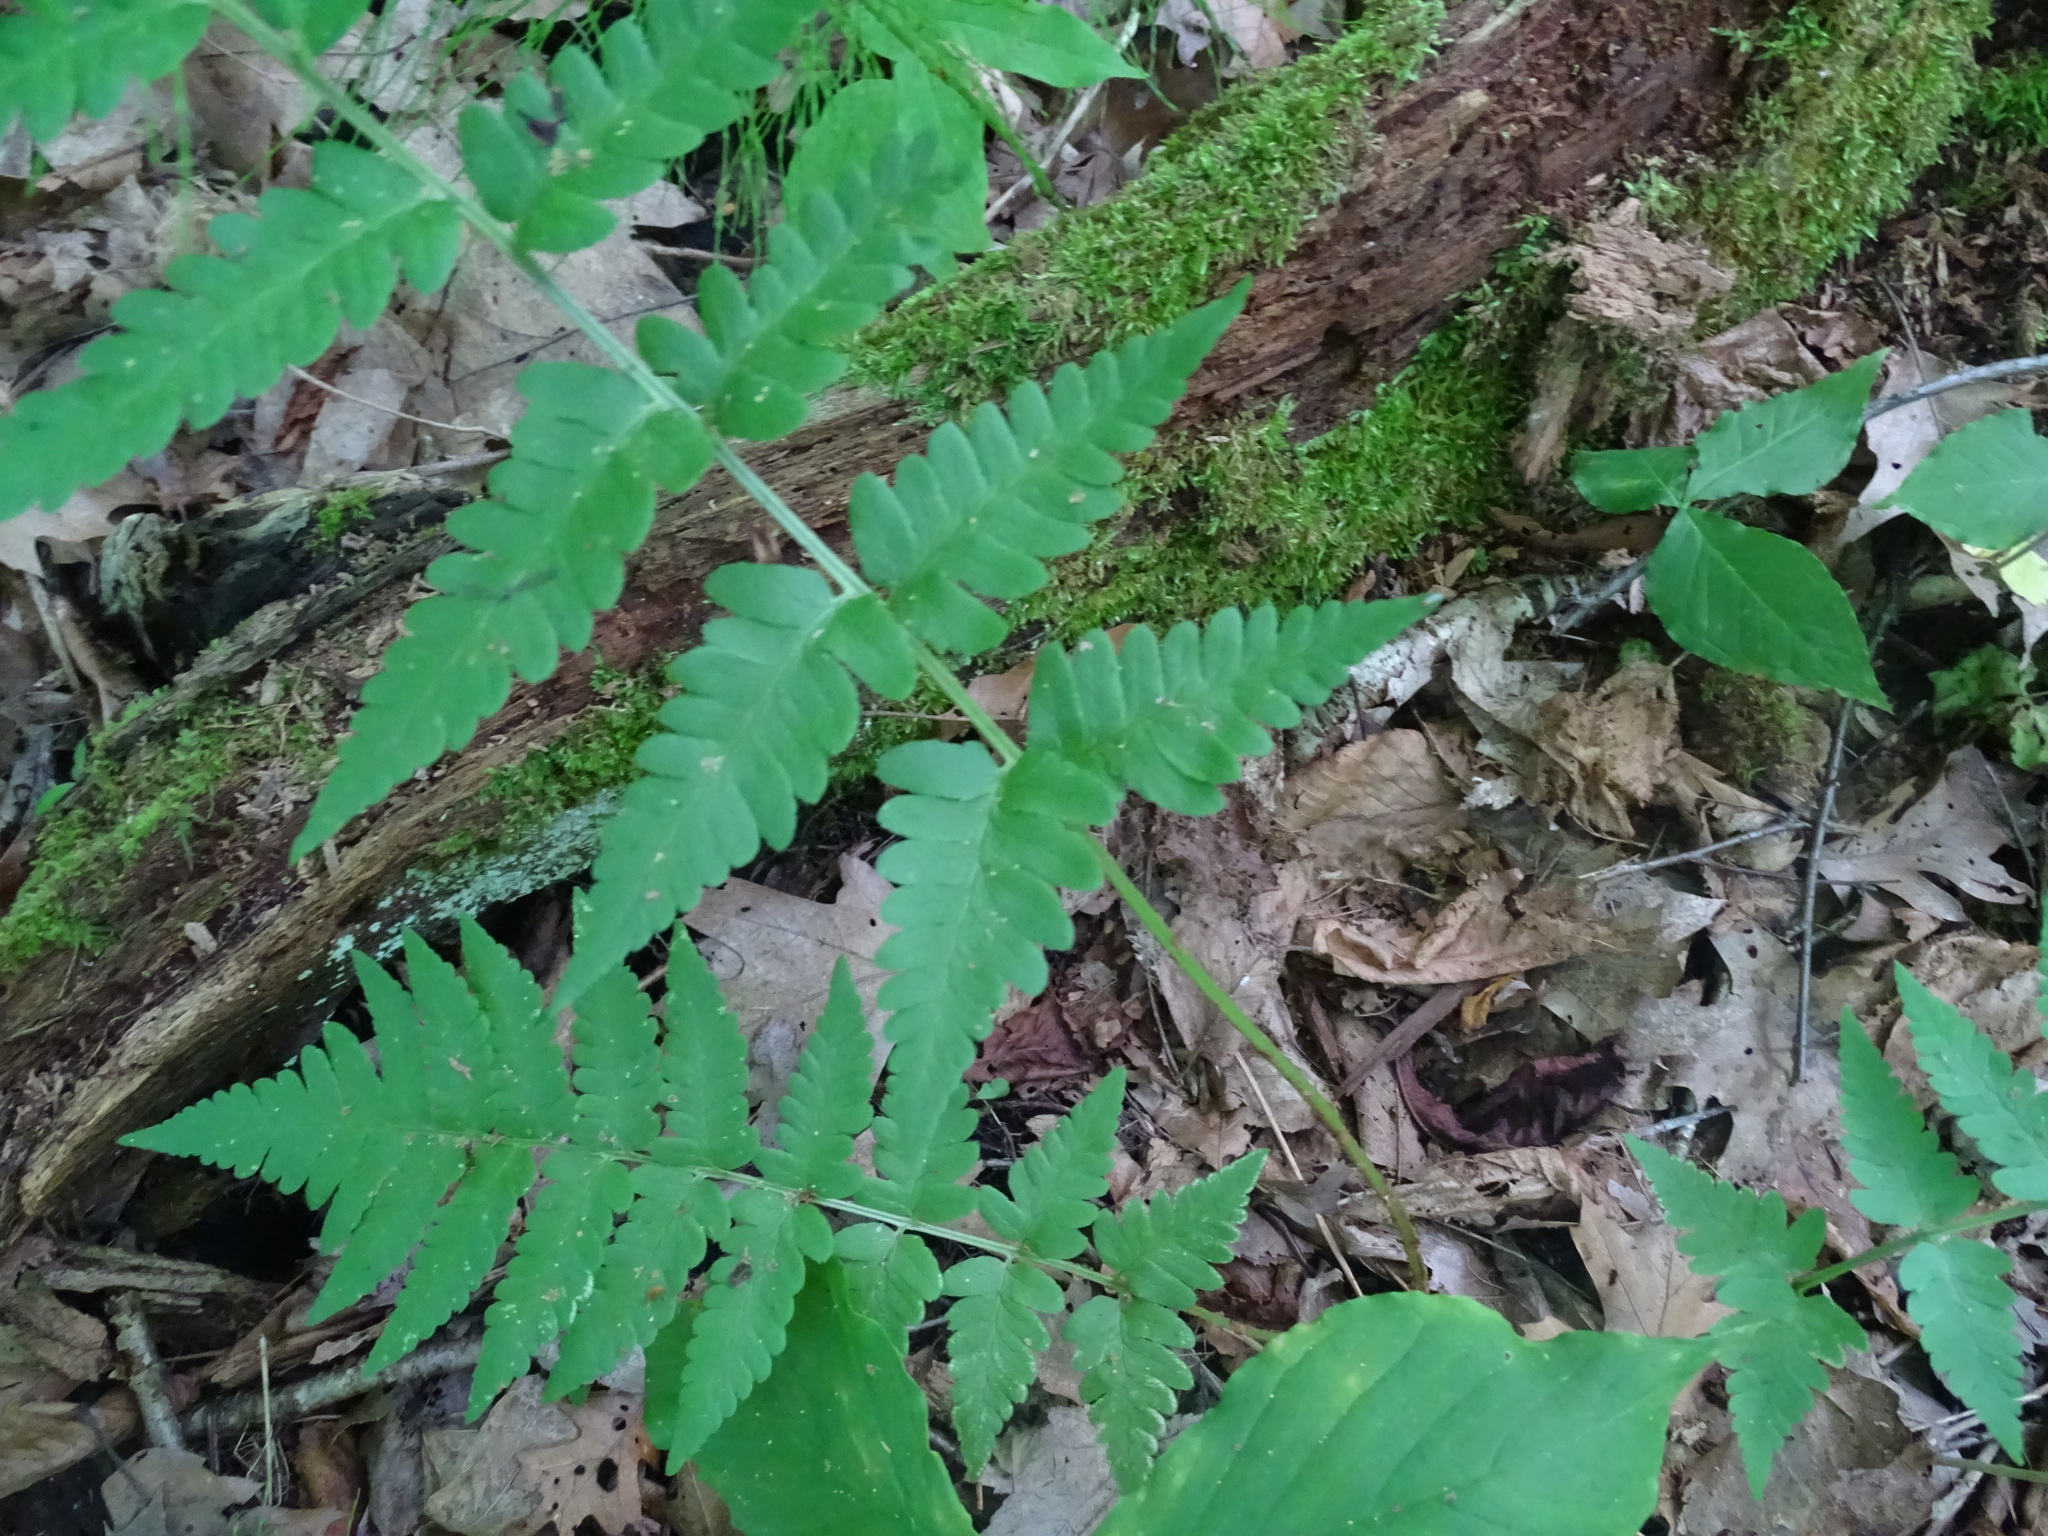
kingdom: Plantae
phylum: Tracheophyta
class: Polypodiopsida
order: Polypodiales
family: Dryopteridaceae
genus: Dryopteris
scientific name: Dryopteris clintoniana
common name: Clinton's wood fern
